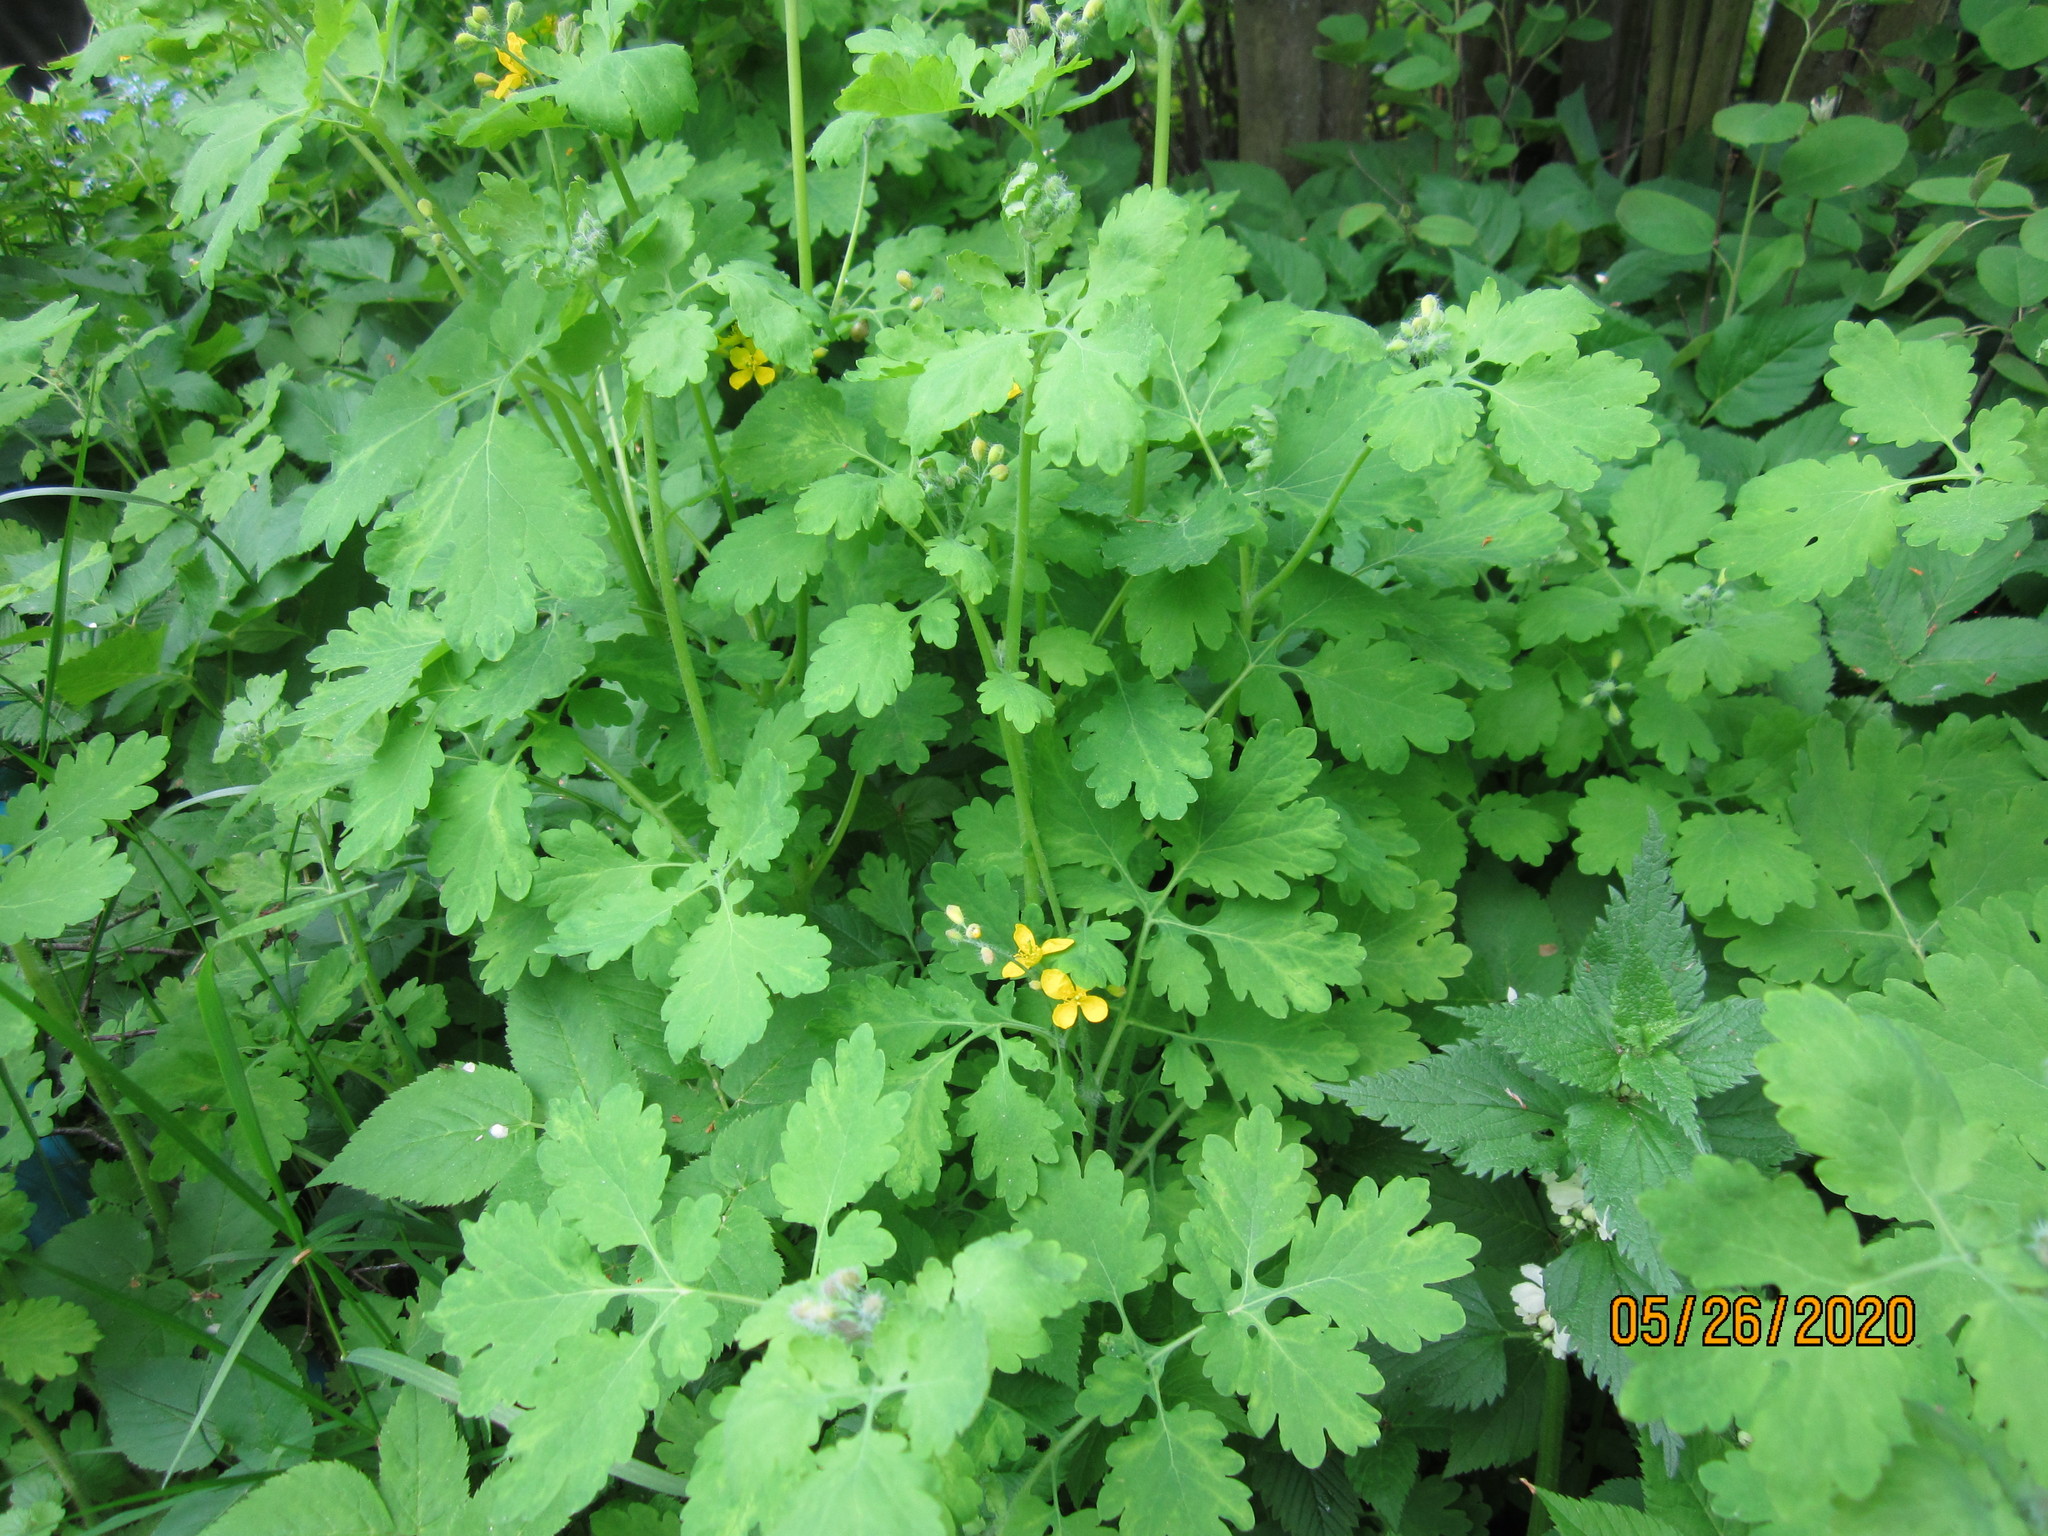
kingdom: Plantae
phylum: Tracheophyta
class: Magnoliopsida
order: Ranunculales
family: Papaveraceae
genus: Chelidonium
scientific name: Chelidonium majus
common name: Greater celandine
